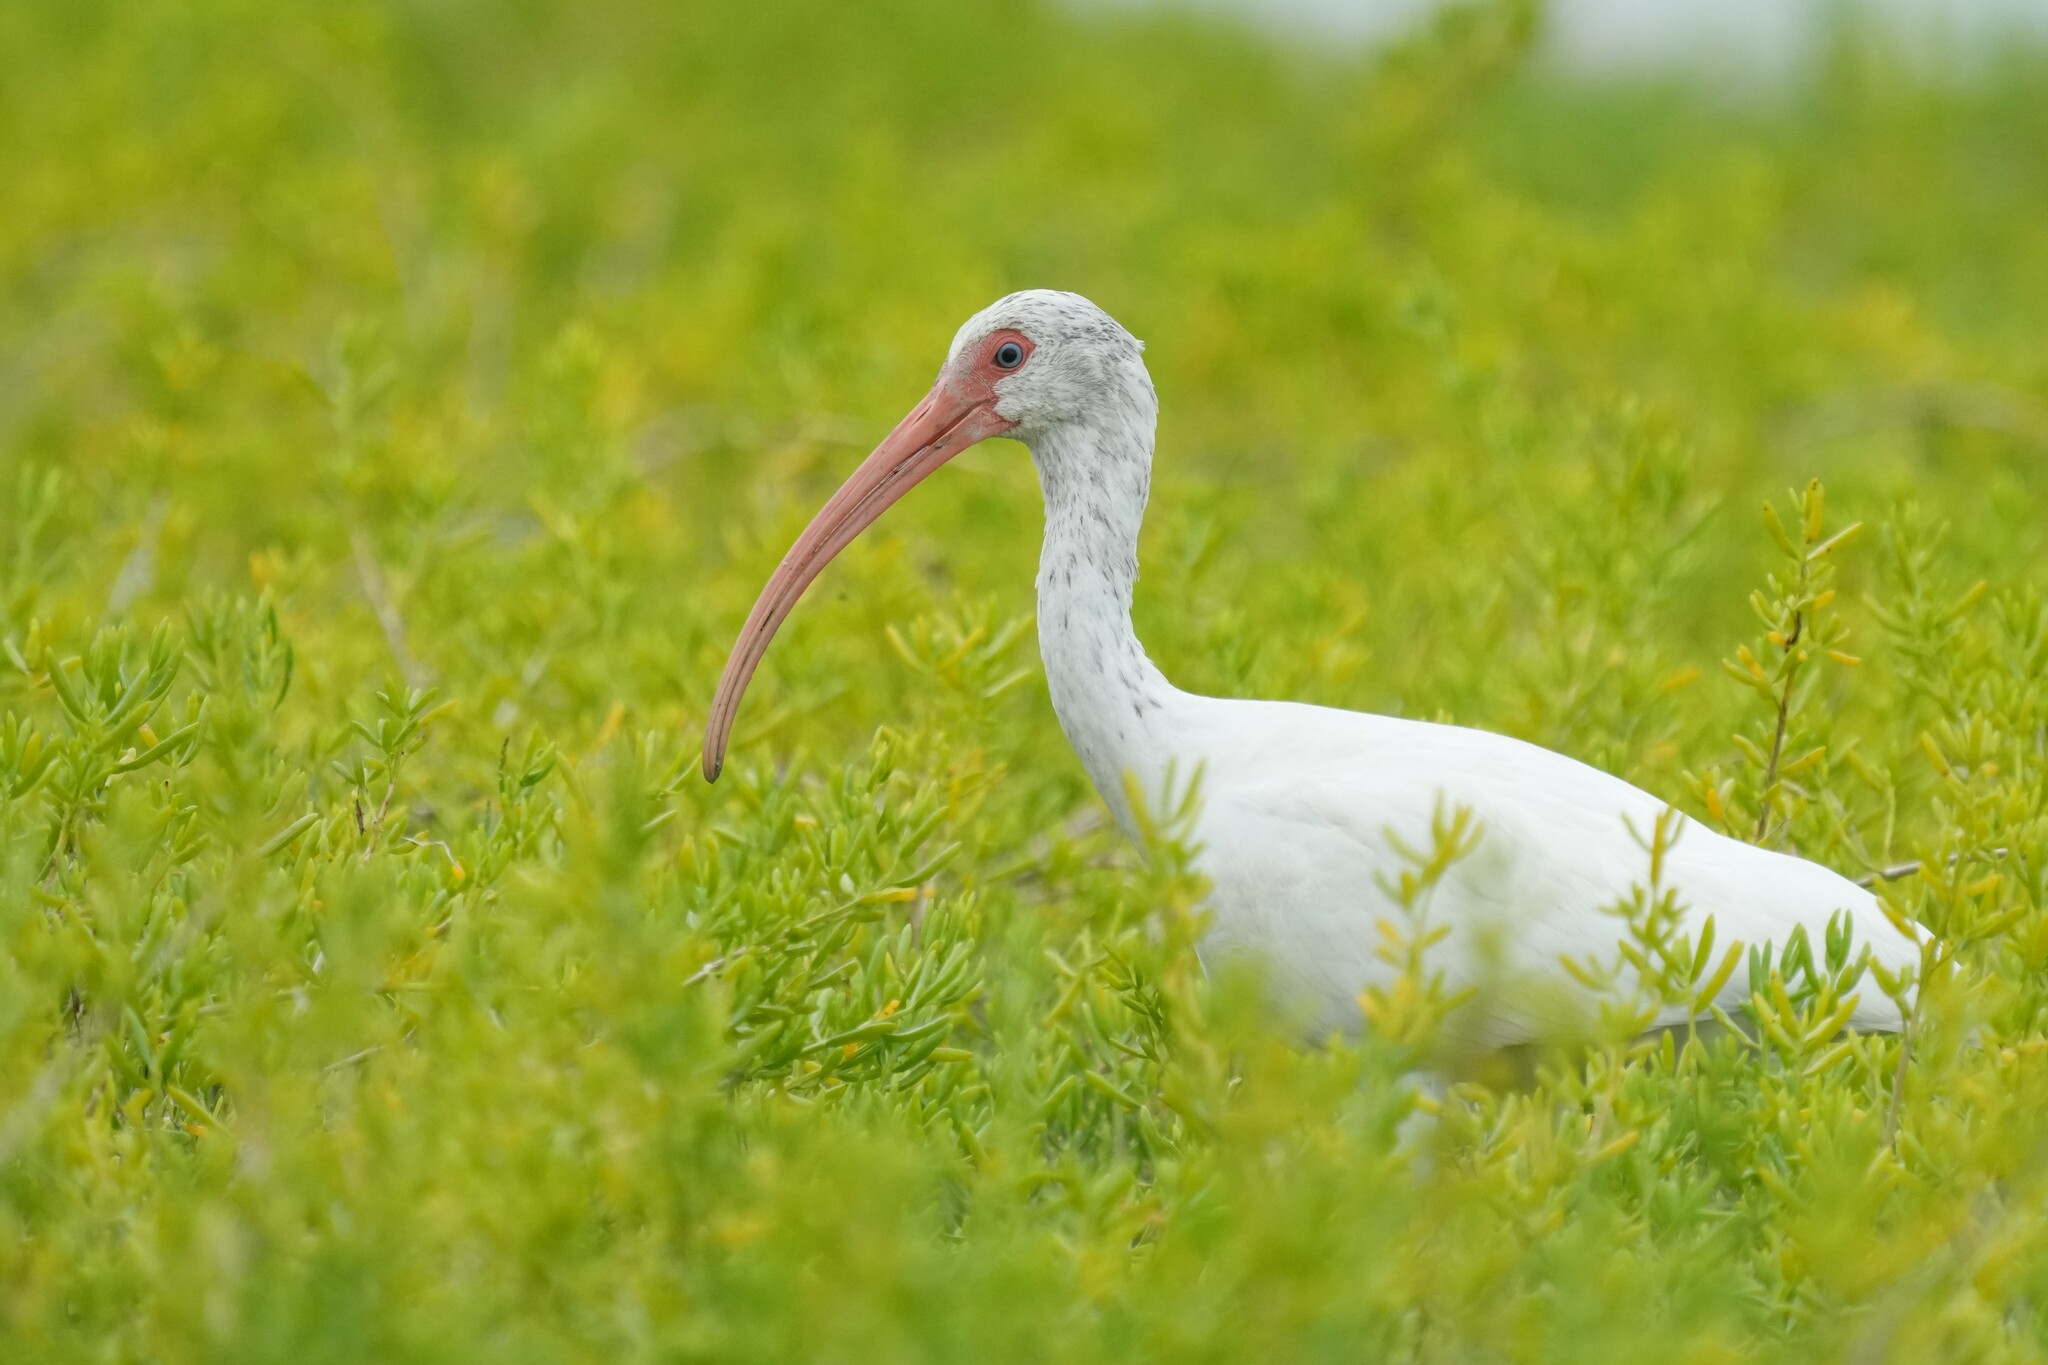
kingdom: Animalia
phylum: Chordata
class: Aves
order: Pelecaniformes
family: Threskiornithidae
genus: Eudocimus
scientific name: Eudocimus albus
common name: White ibis
